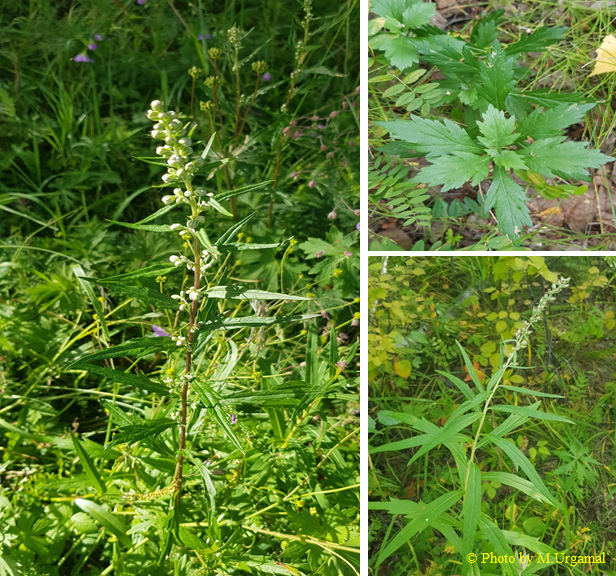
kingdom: Plantae
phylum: Tracheophyta
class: Magnoliopsida
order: Asterales
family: Asteraceae
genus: Artemisia
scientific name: Artemisia integrifolia
